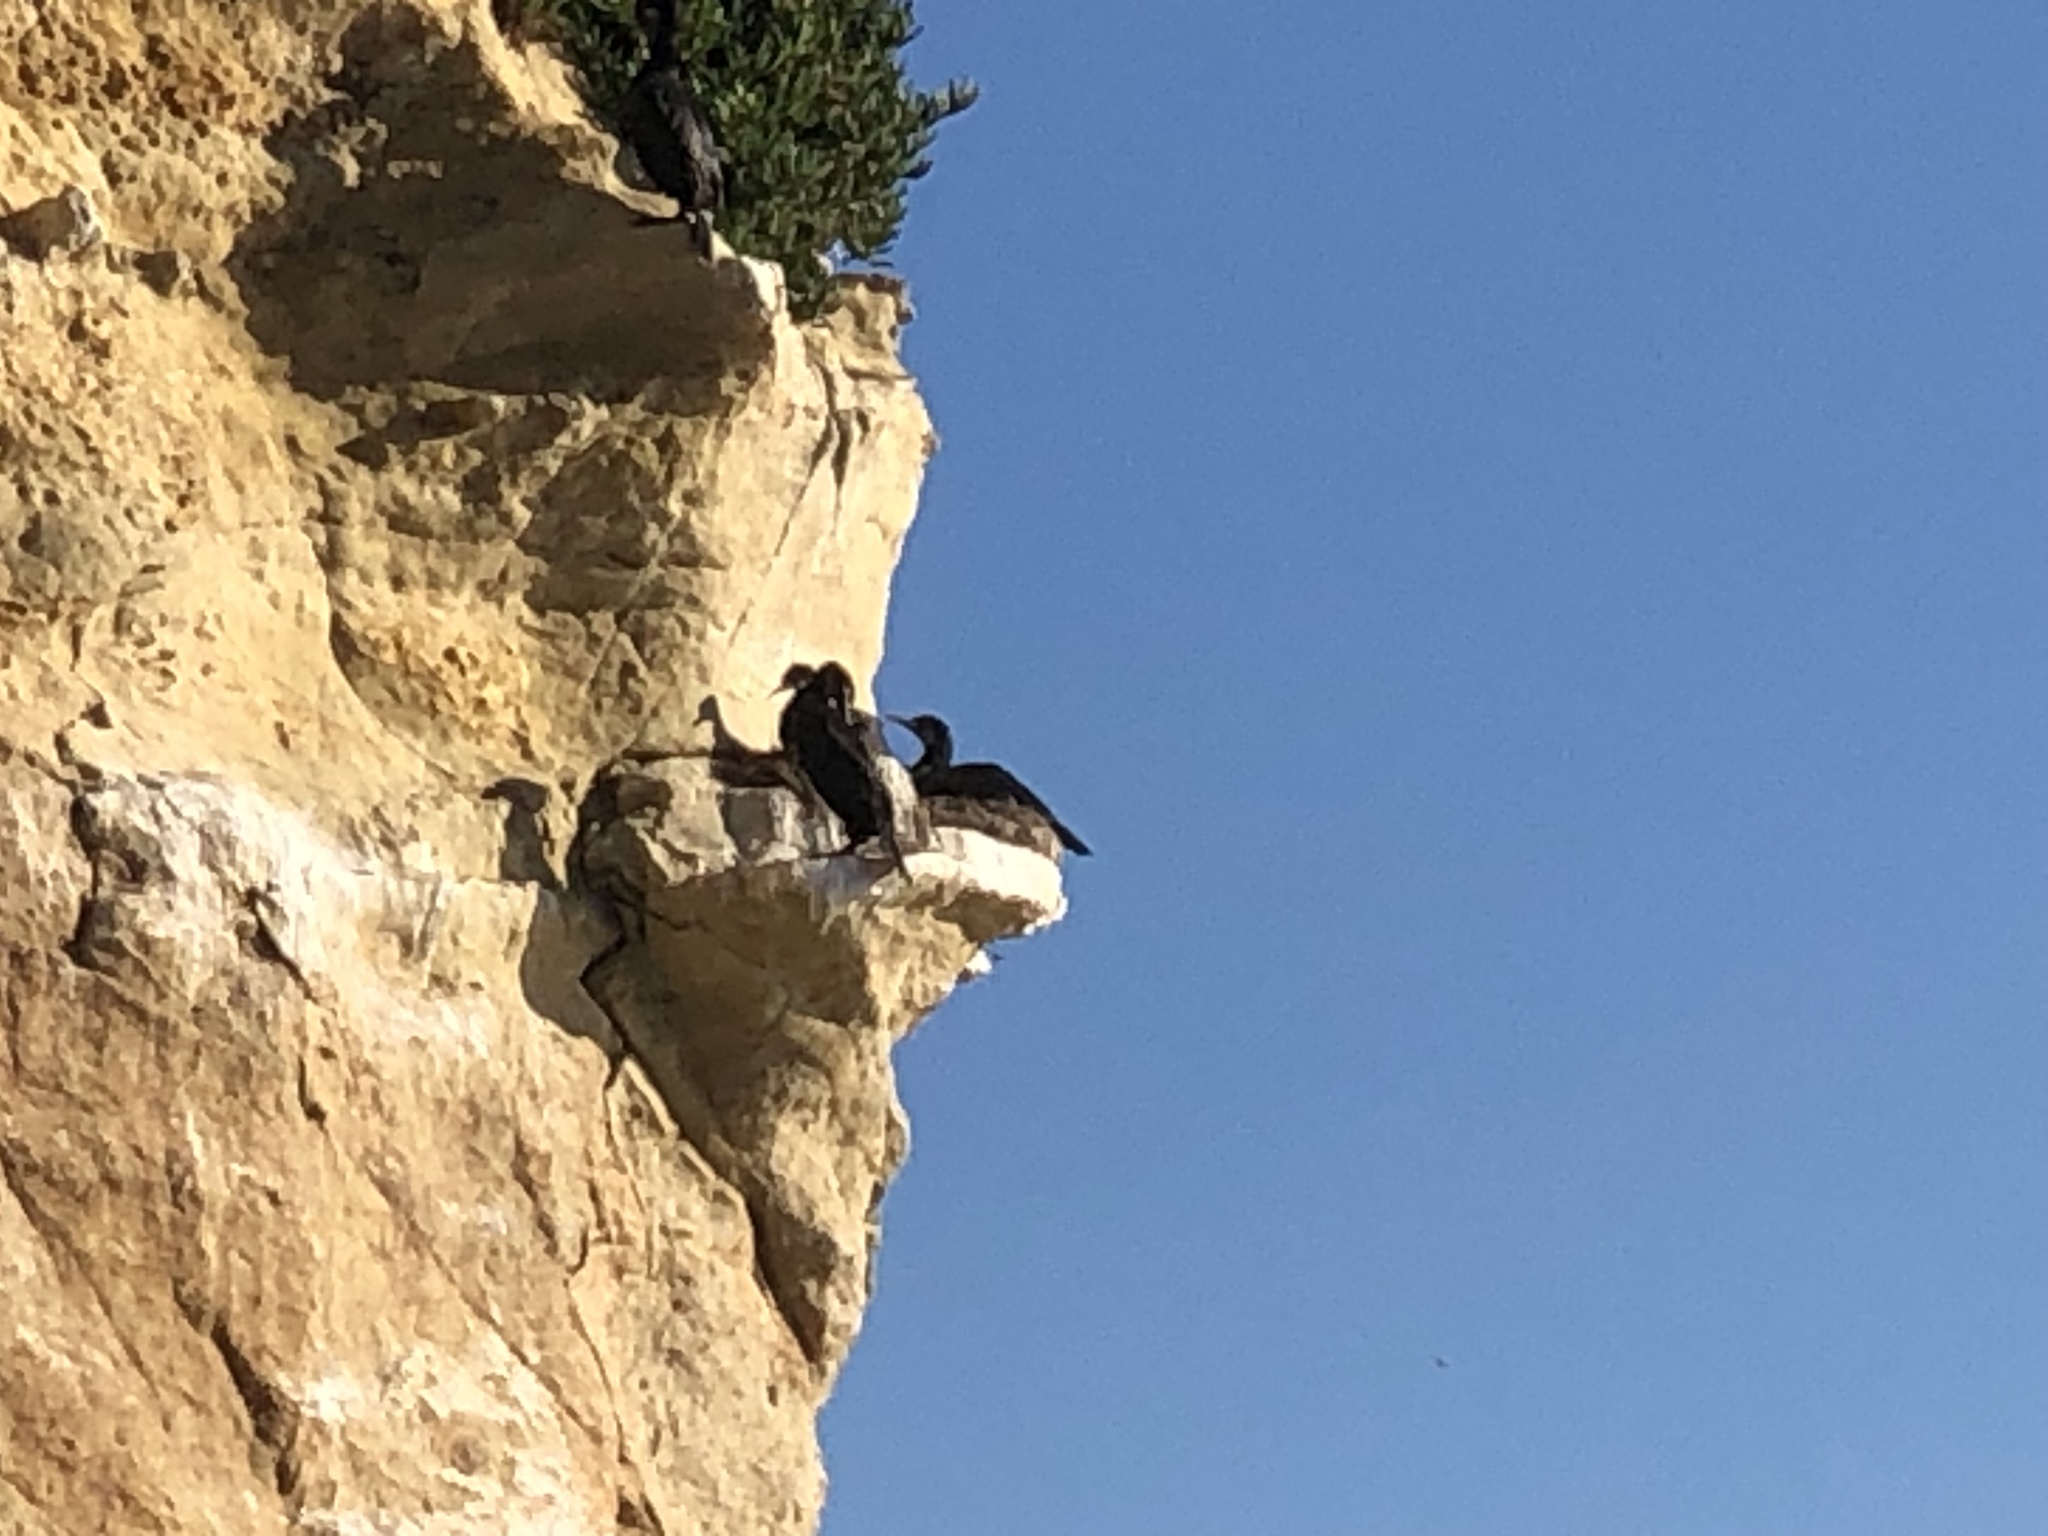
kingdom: Animalia
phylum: Chordata
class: Aves
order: Suliformes
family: Phalacrocoracidae
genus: Urile
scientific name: Urile penicillatus
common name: Brandt's cormorant
